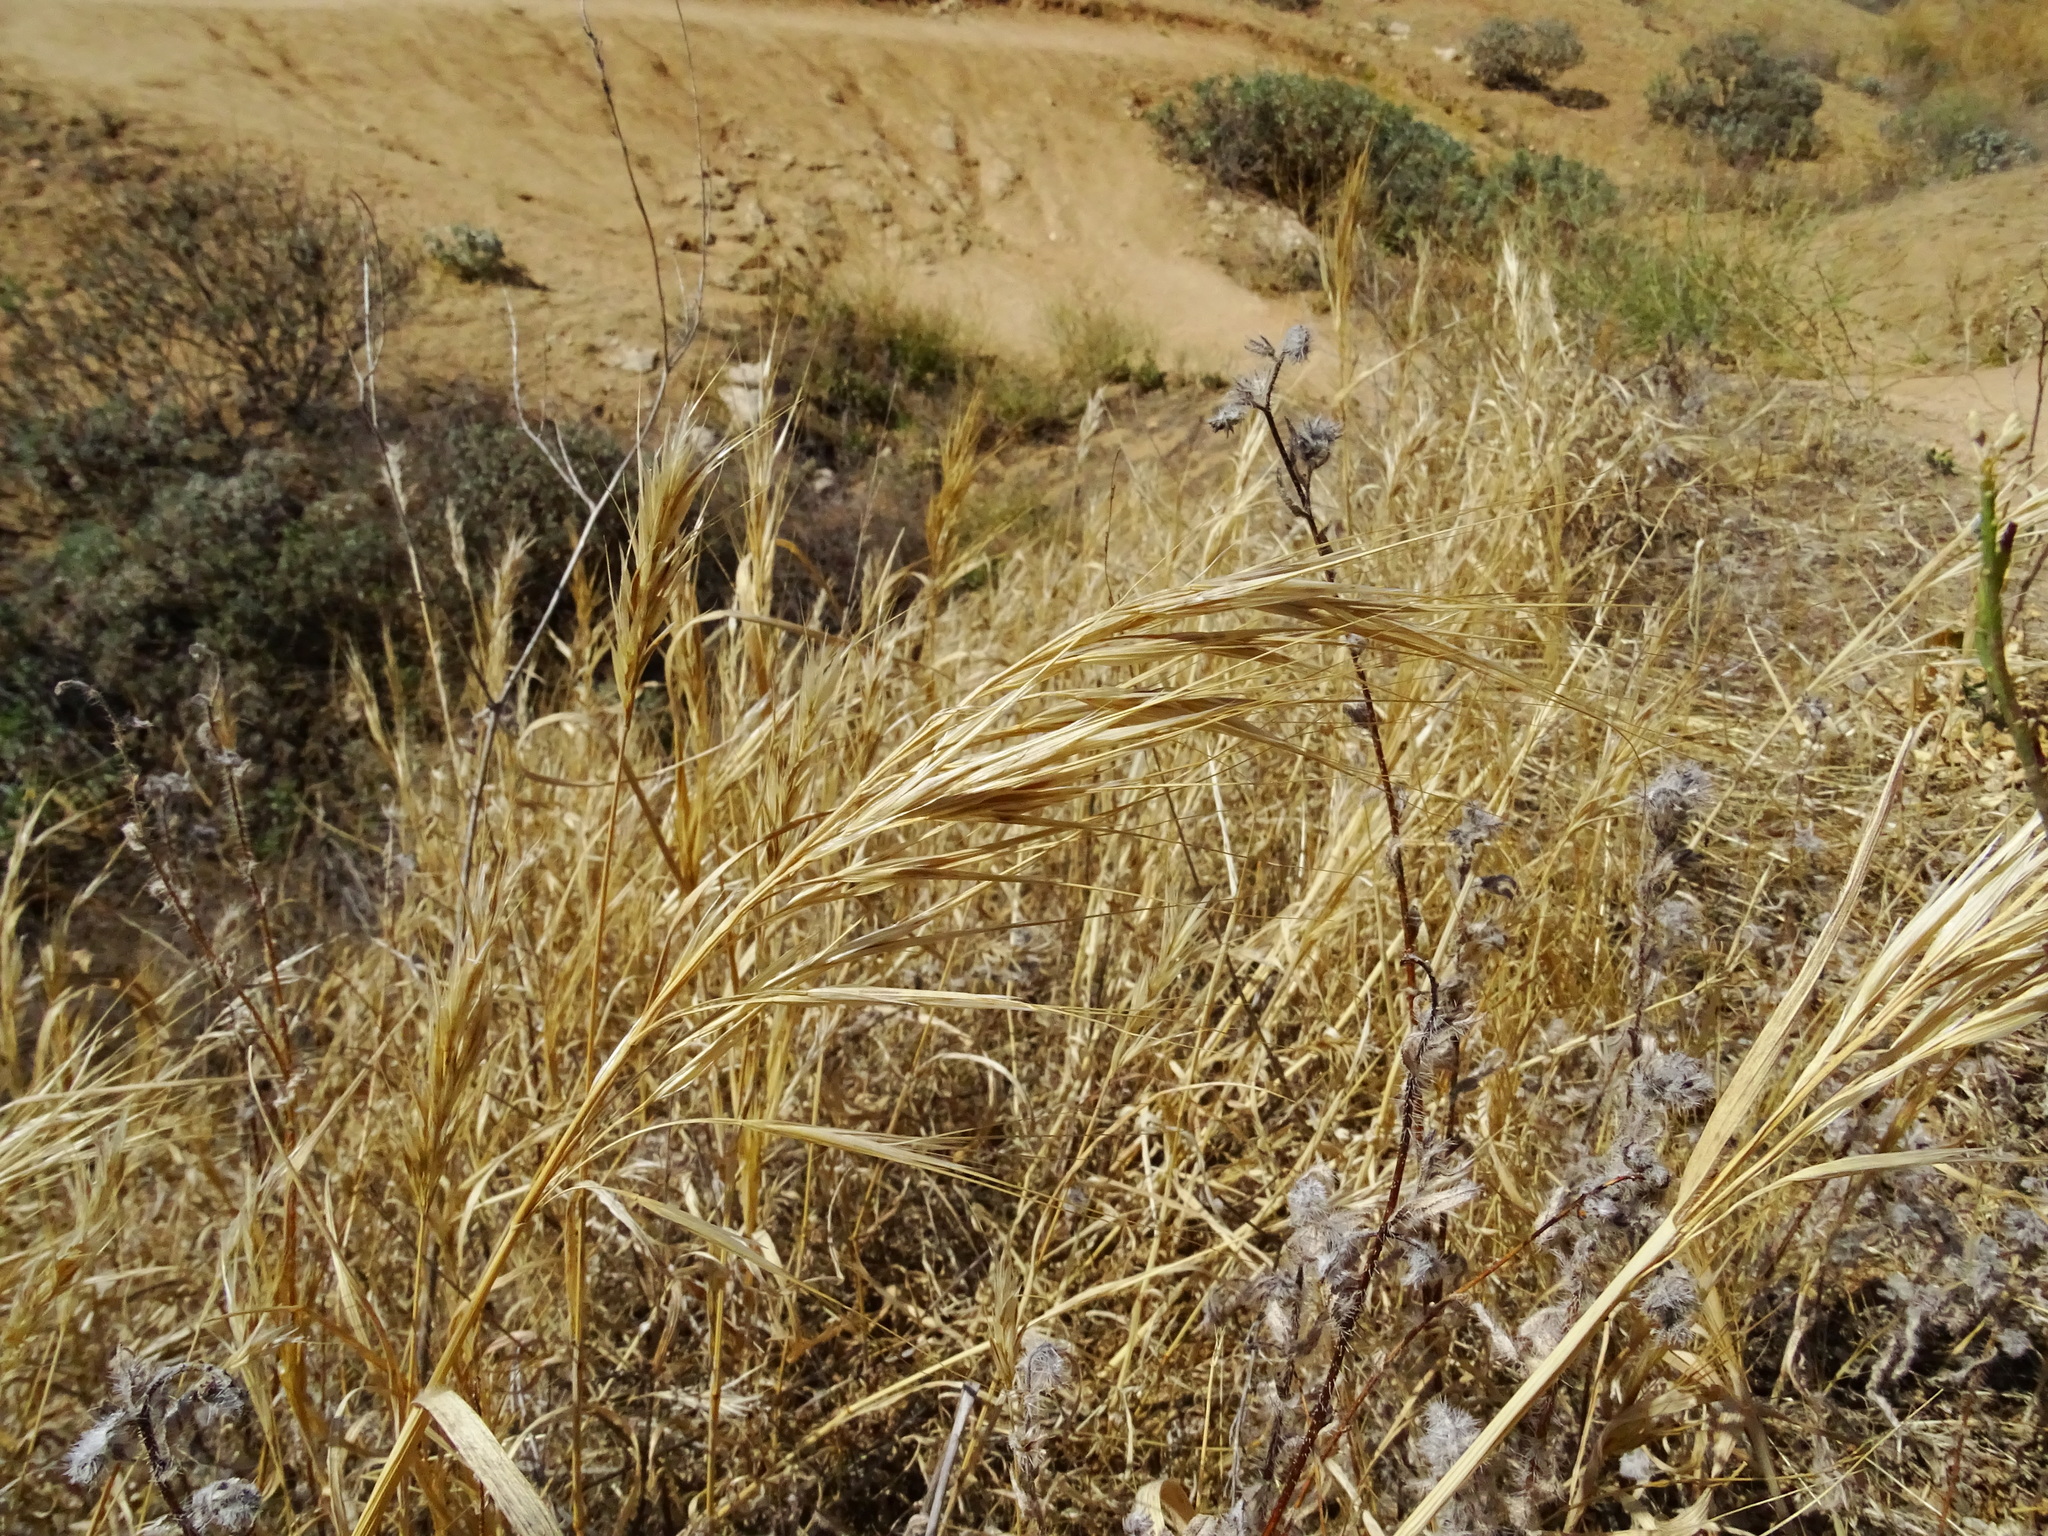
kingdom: Plantae
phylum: Tracheophyta
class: Liliopsida
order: Poales
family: Poaceae
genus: Bromus
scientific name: Bromus diandrus
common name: Ripgut brome
